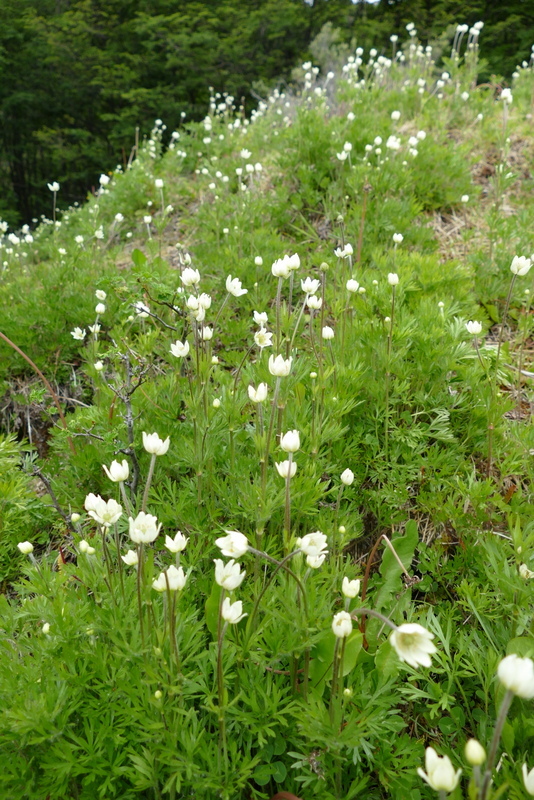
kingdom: Plantae
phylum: Tracheophyta
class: Magnoliopsida
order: Ranunculales
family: Ranunculaceae
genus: Anemone
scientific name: Anemone multifida
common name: Bird's-foot anemone
